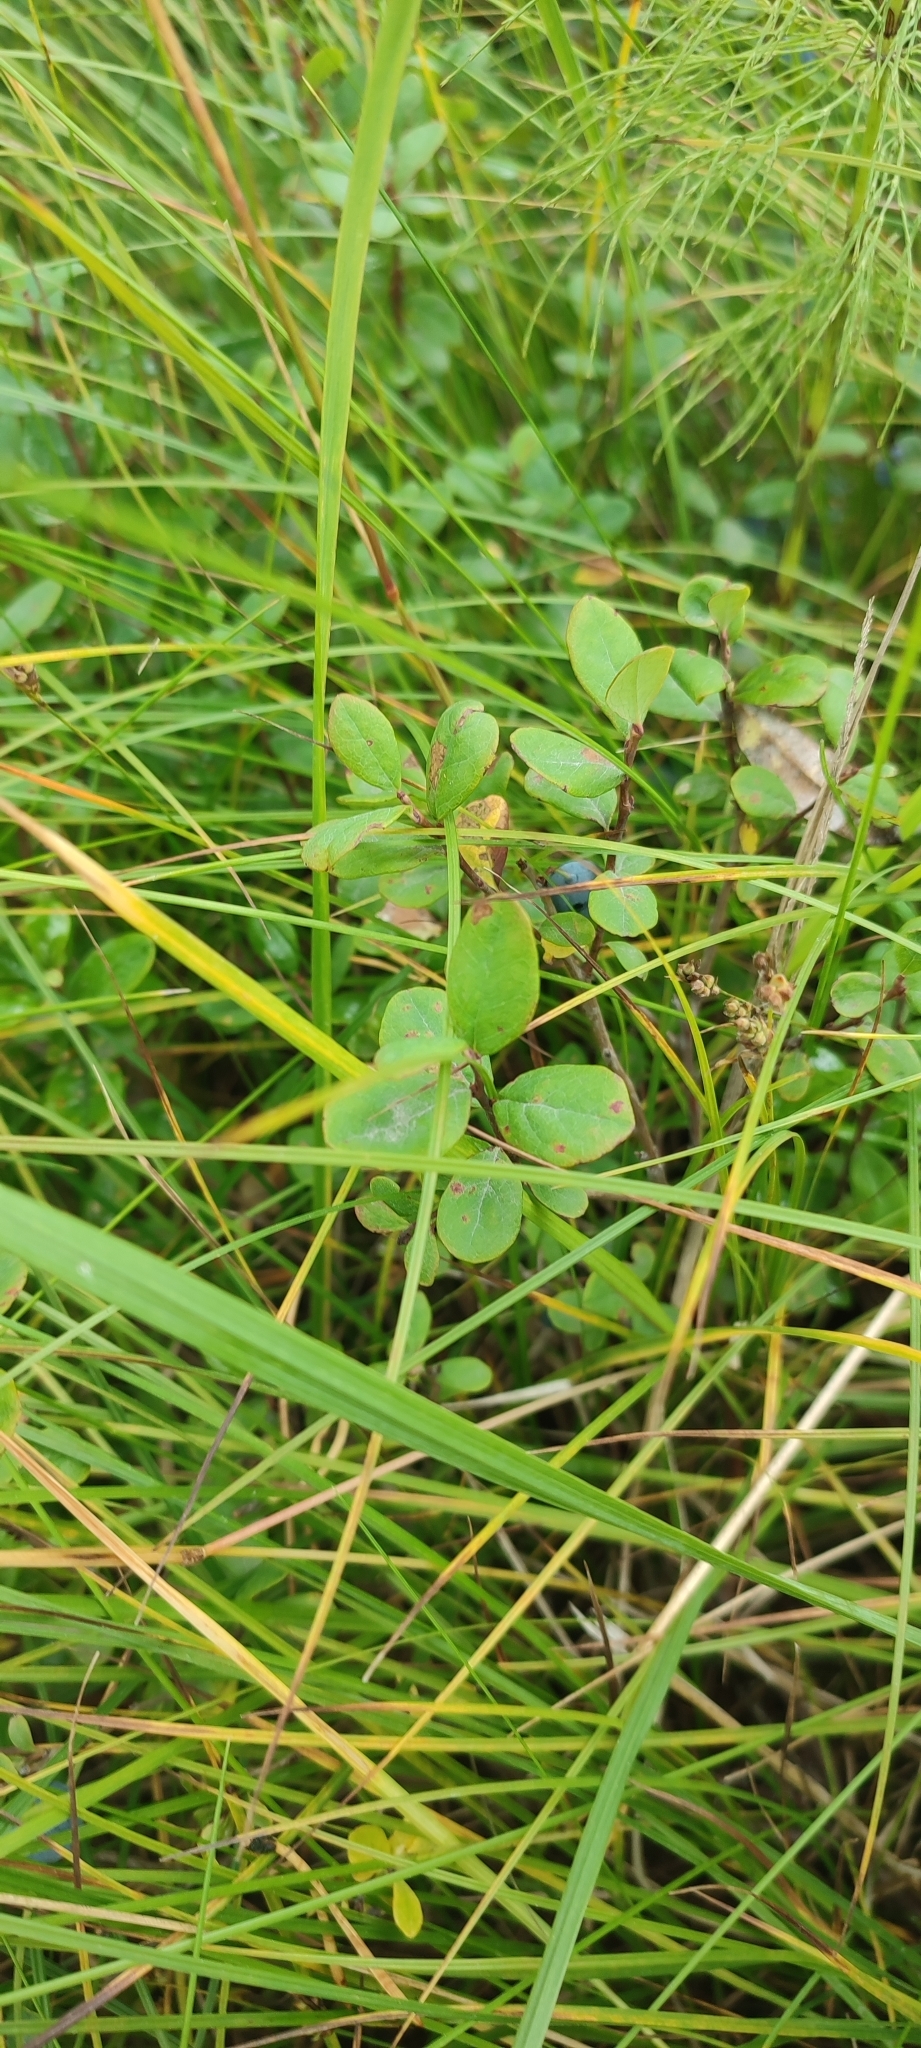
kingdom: Plantae
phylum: Tracheophyta
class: Magnoliopsida
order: Ericales
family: Ericaceae
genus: Vaccinium
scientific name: Vaccinium uliginosum
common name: Bog bilberry
